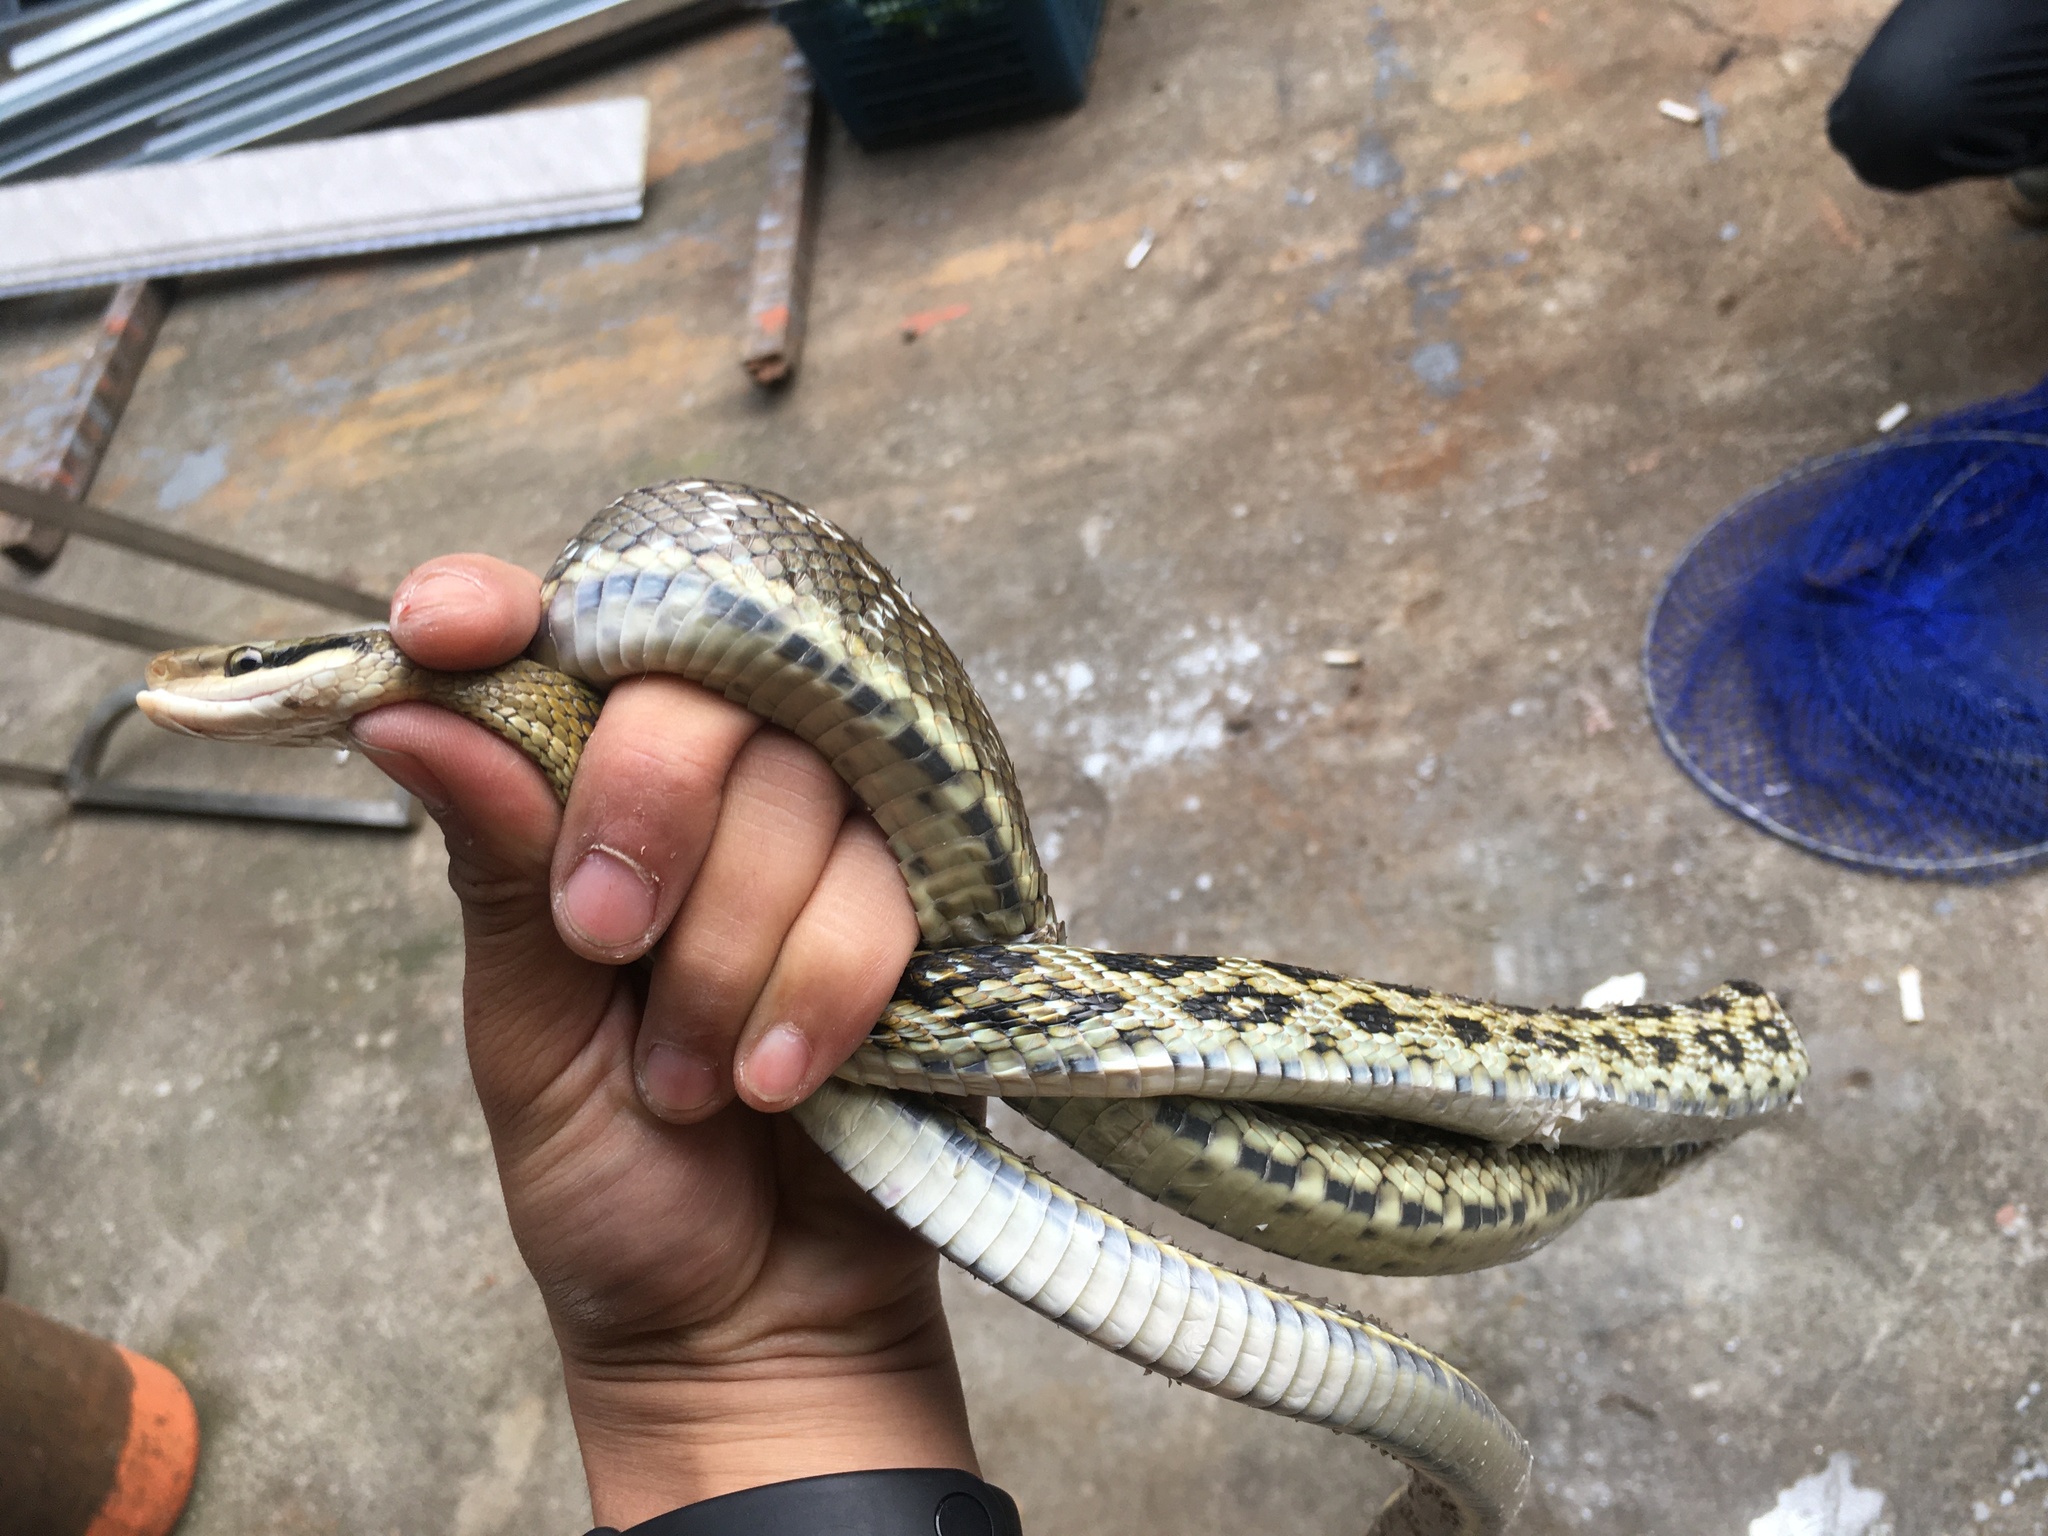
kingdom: Animalia
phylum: Chordata
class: Squamata
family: Colubridae
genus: Elaphe
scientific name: Elaphe taeniura
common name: Beauty snake
